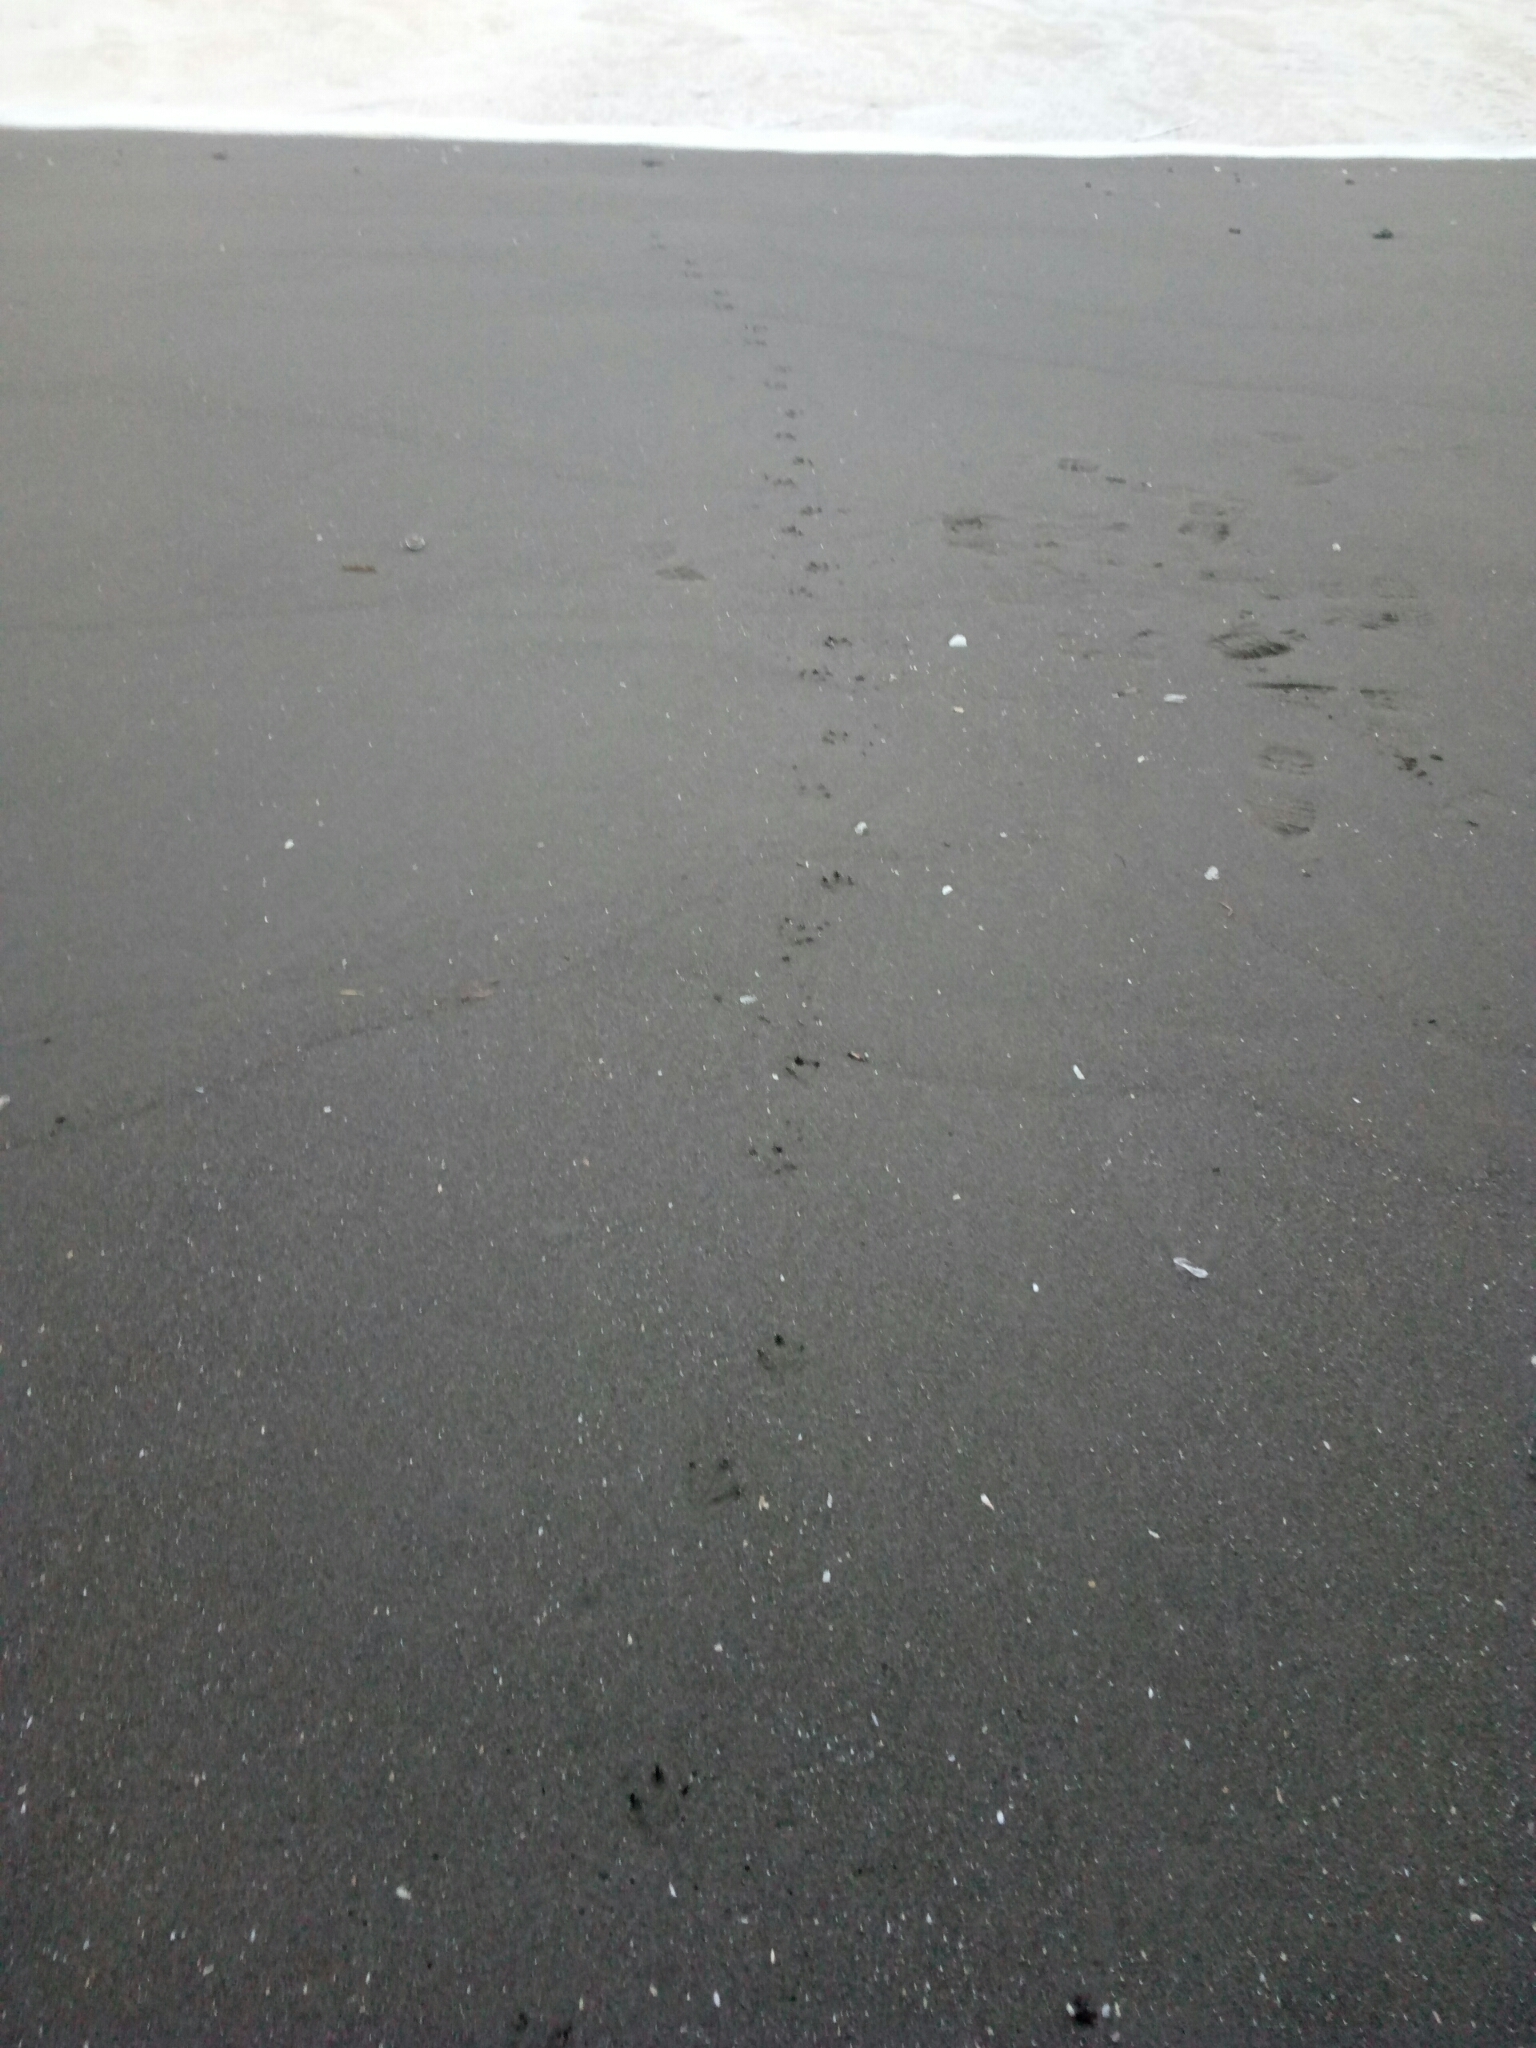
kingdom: Animalia
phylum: Chordata
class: Aves
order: Sphenisciformes
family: Spheniscidae
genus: Eudyptula
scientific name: Eudyptula minor
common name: Little penguin
